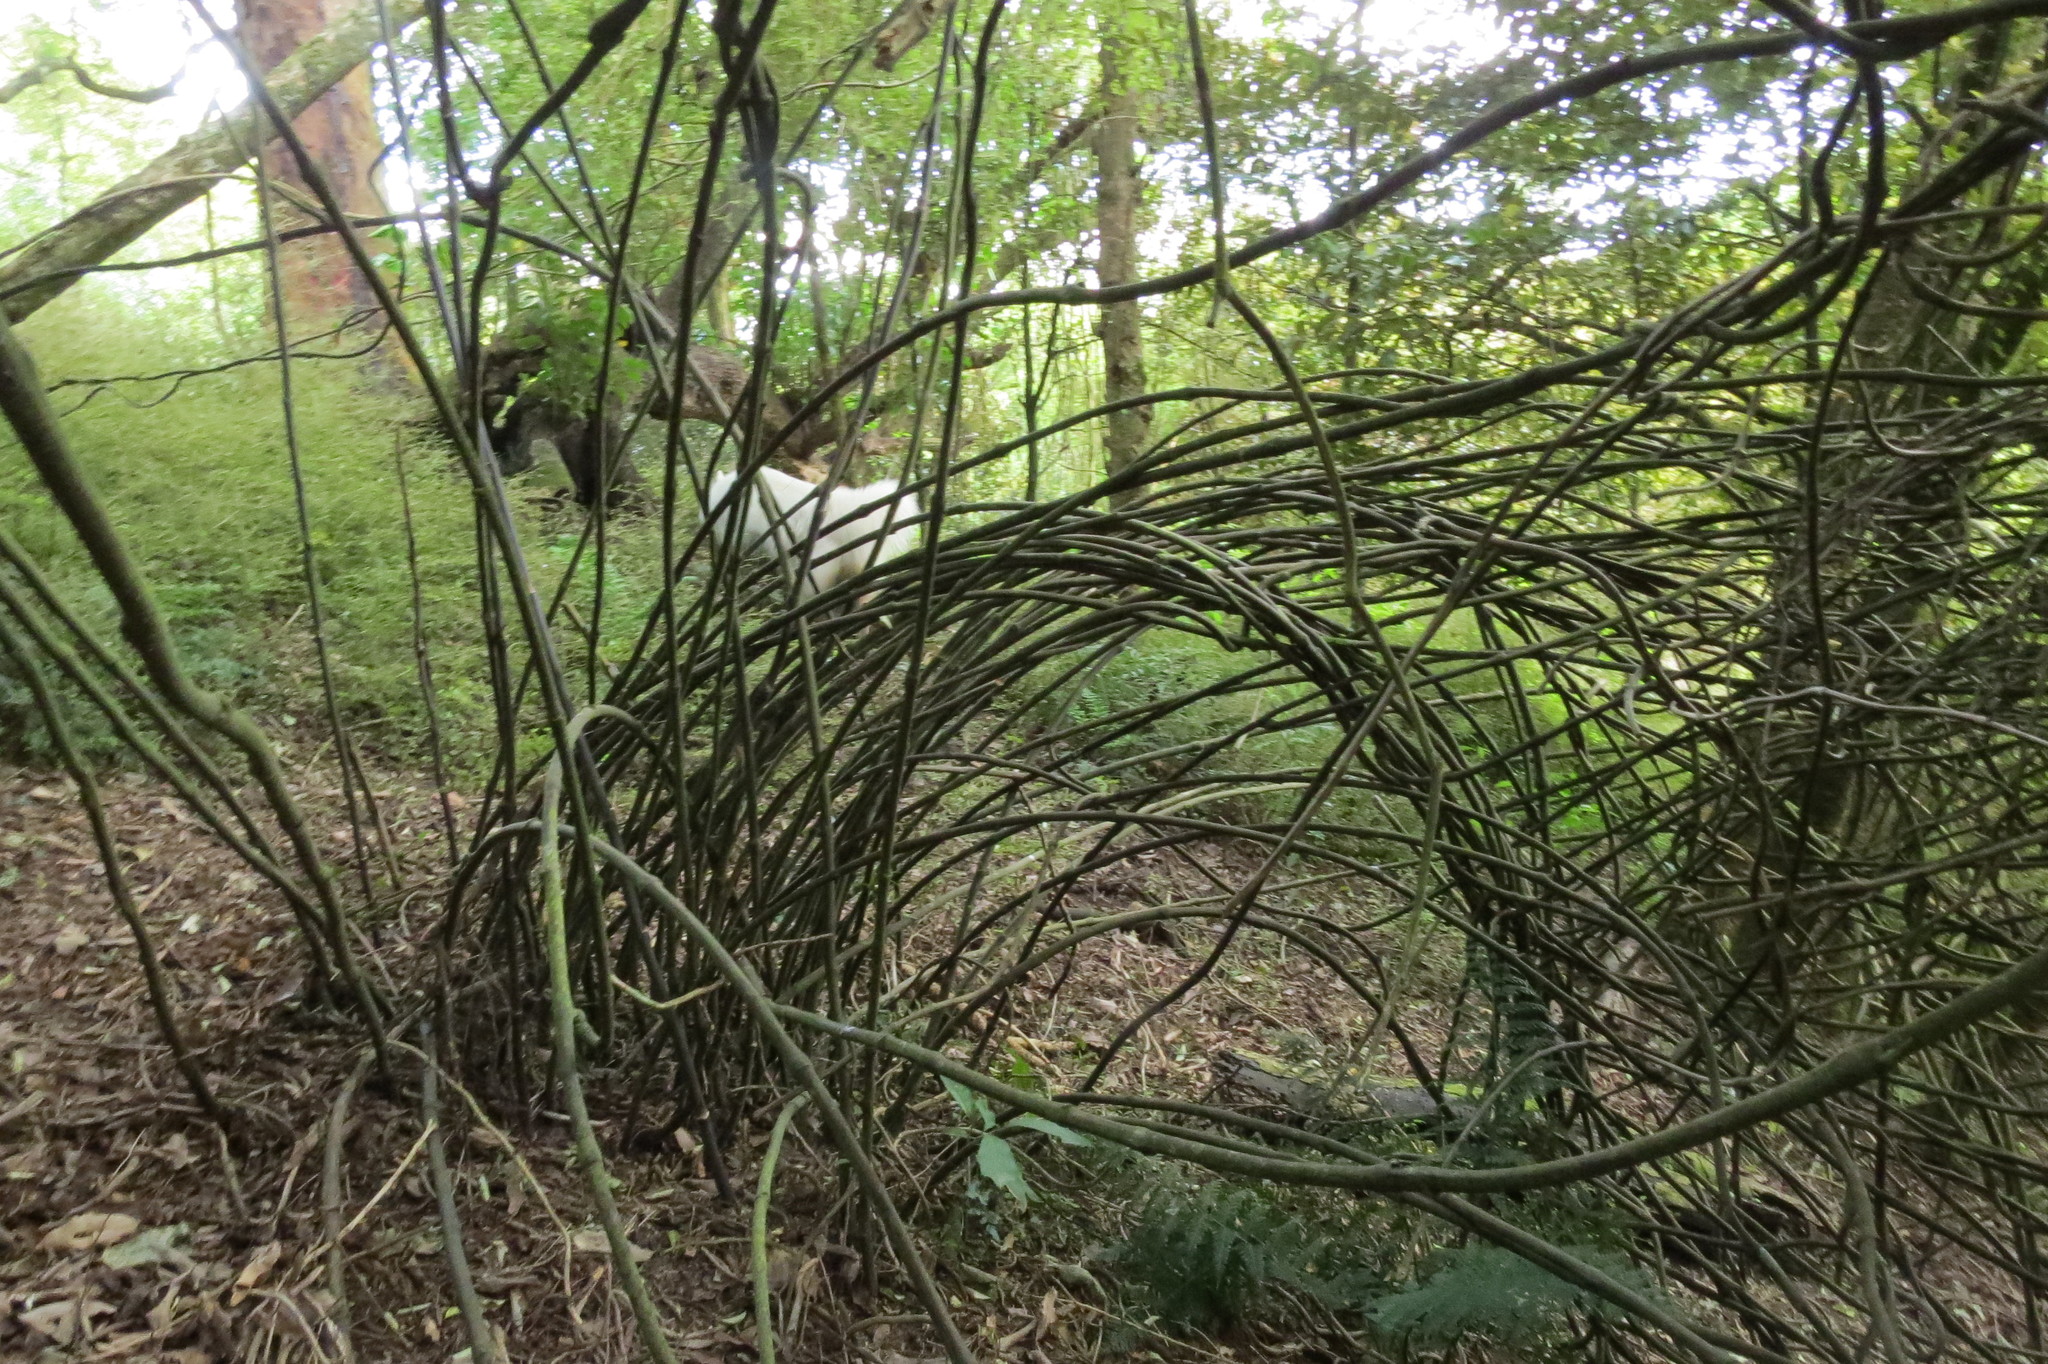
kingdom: Plantae
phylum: Tracheophyta
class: Liliopsida
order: Liliales
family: Ripogonaceae
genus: Ripogonum
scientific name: Ripogonum scandens
